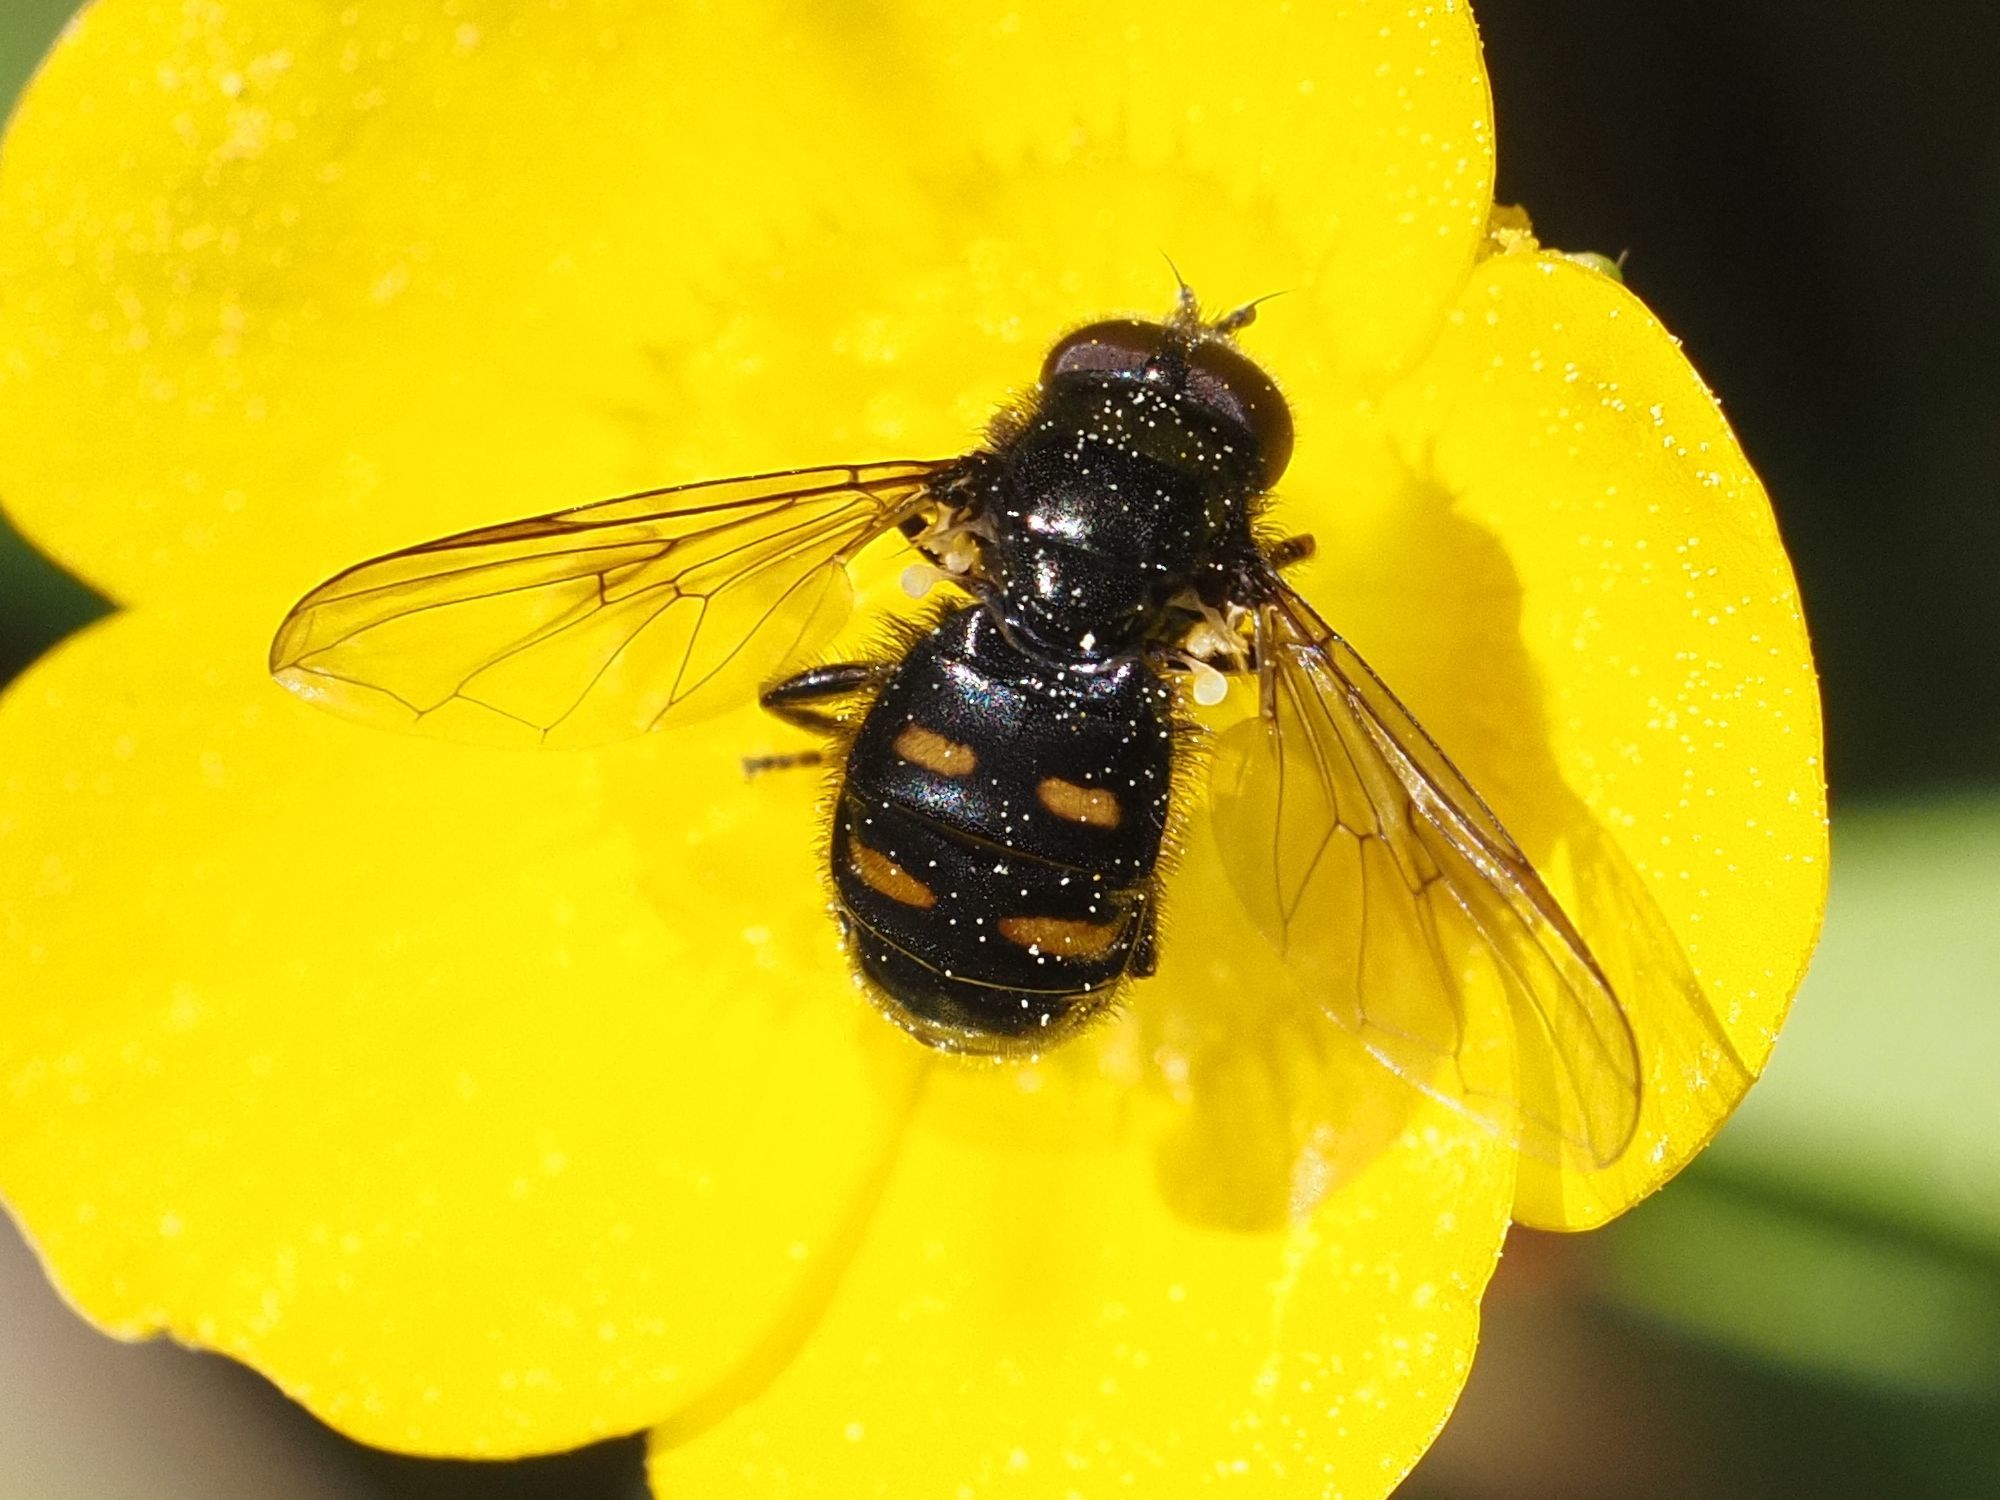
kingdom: Animalia
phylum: Arthropoda
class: Insecta
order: Diptera
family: Syrphidae
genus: Pipiza
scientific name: Pipiza quadrimaculata
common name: Four-spotted pipiza
